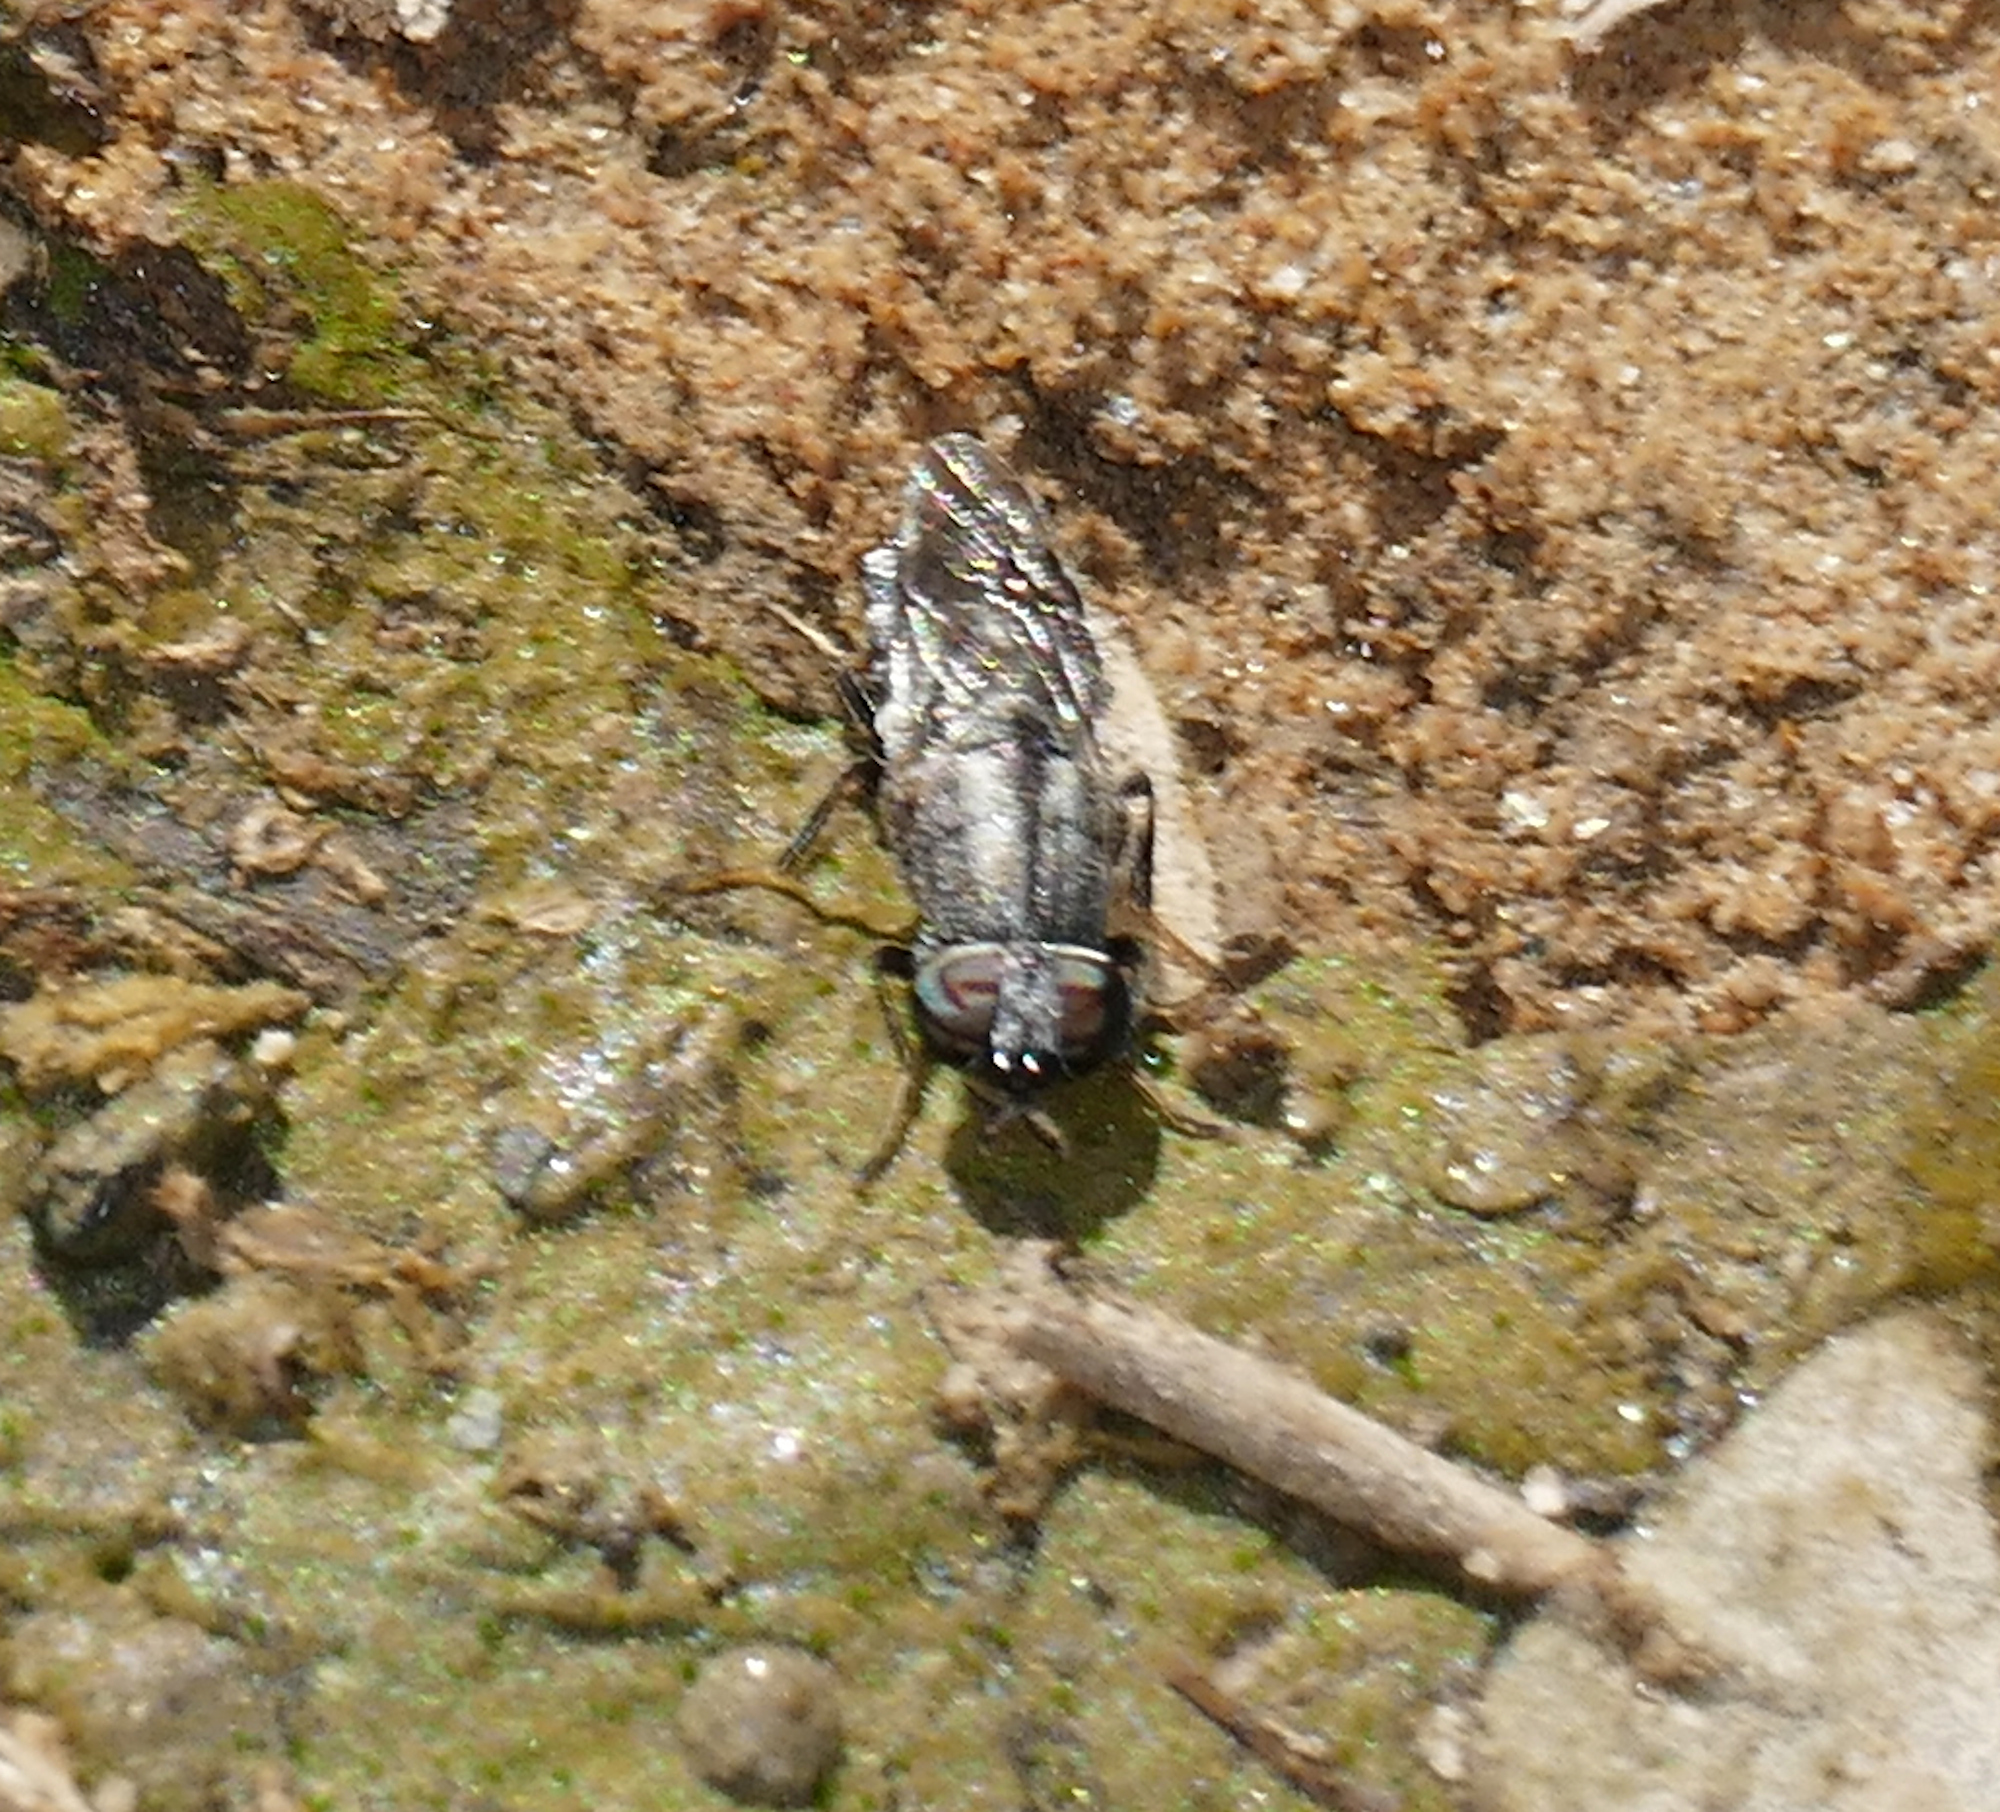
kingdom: Animalia
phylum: Arthropoda
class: Insecta
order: Diptera
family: Stratiomyidae
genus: Dieuryneura
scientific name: Dieuryneura stigma
